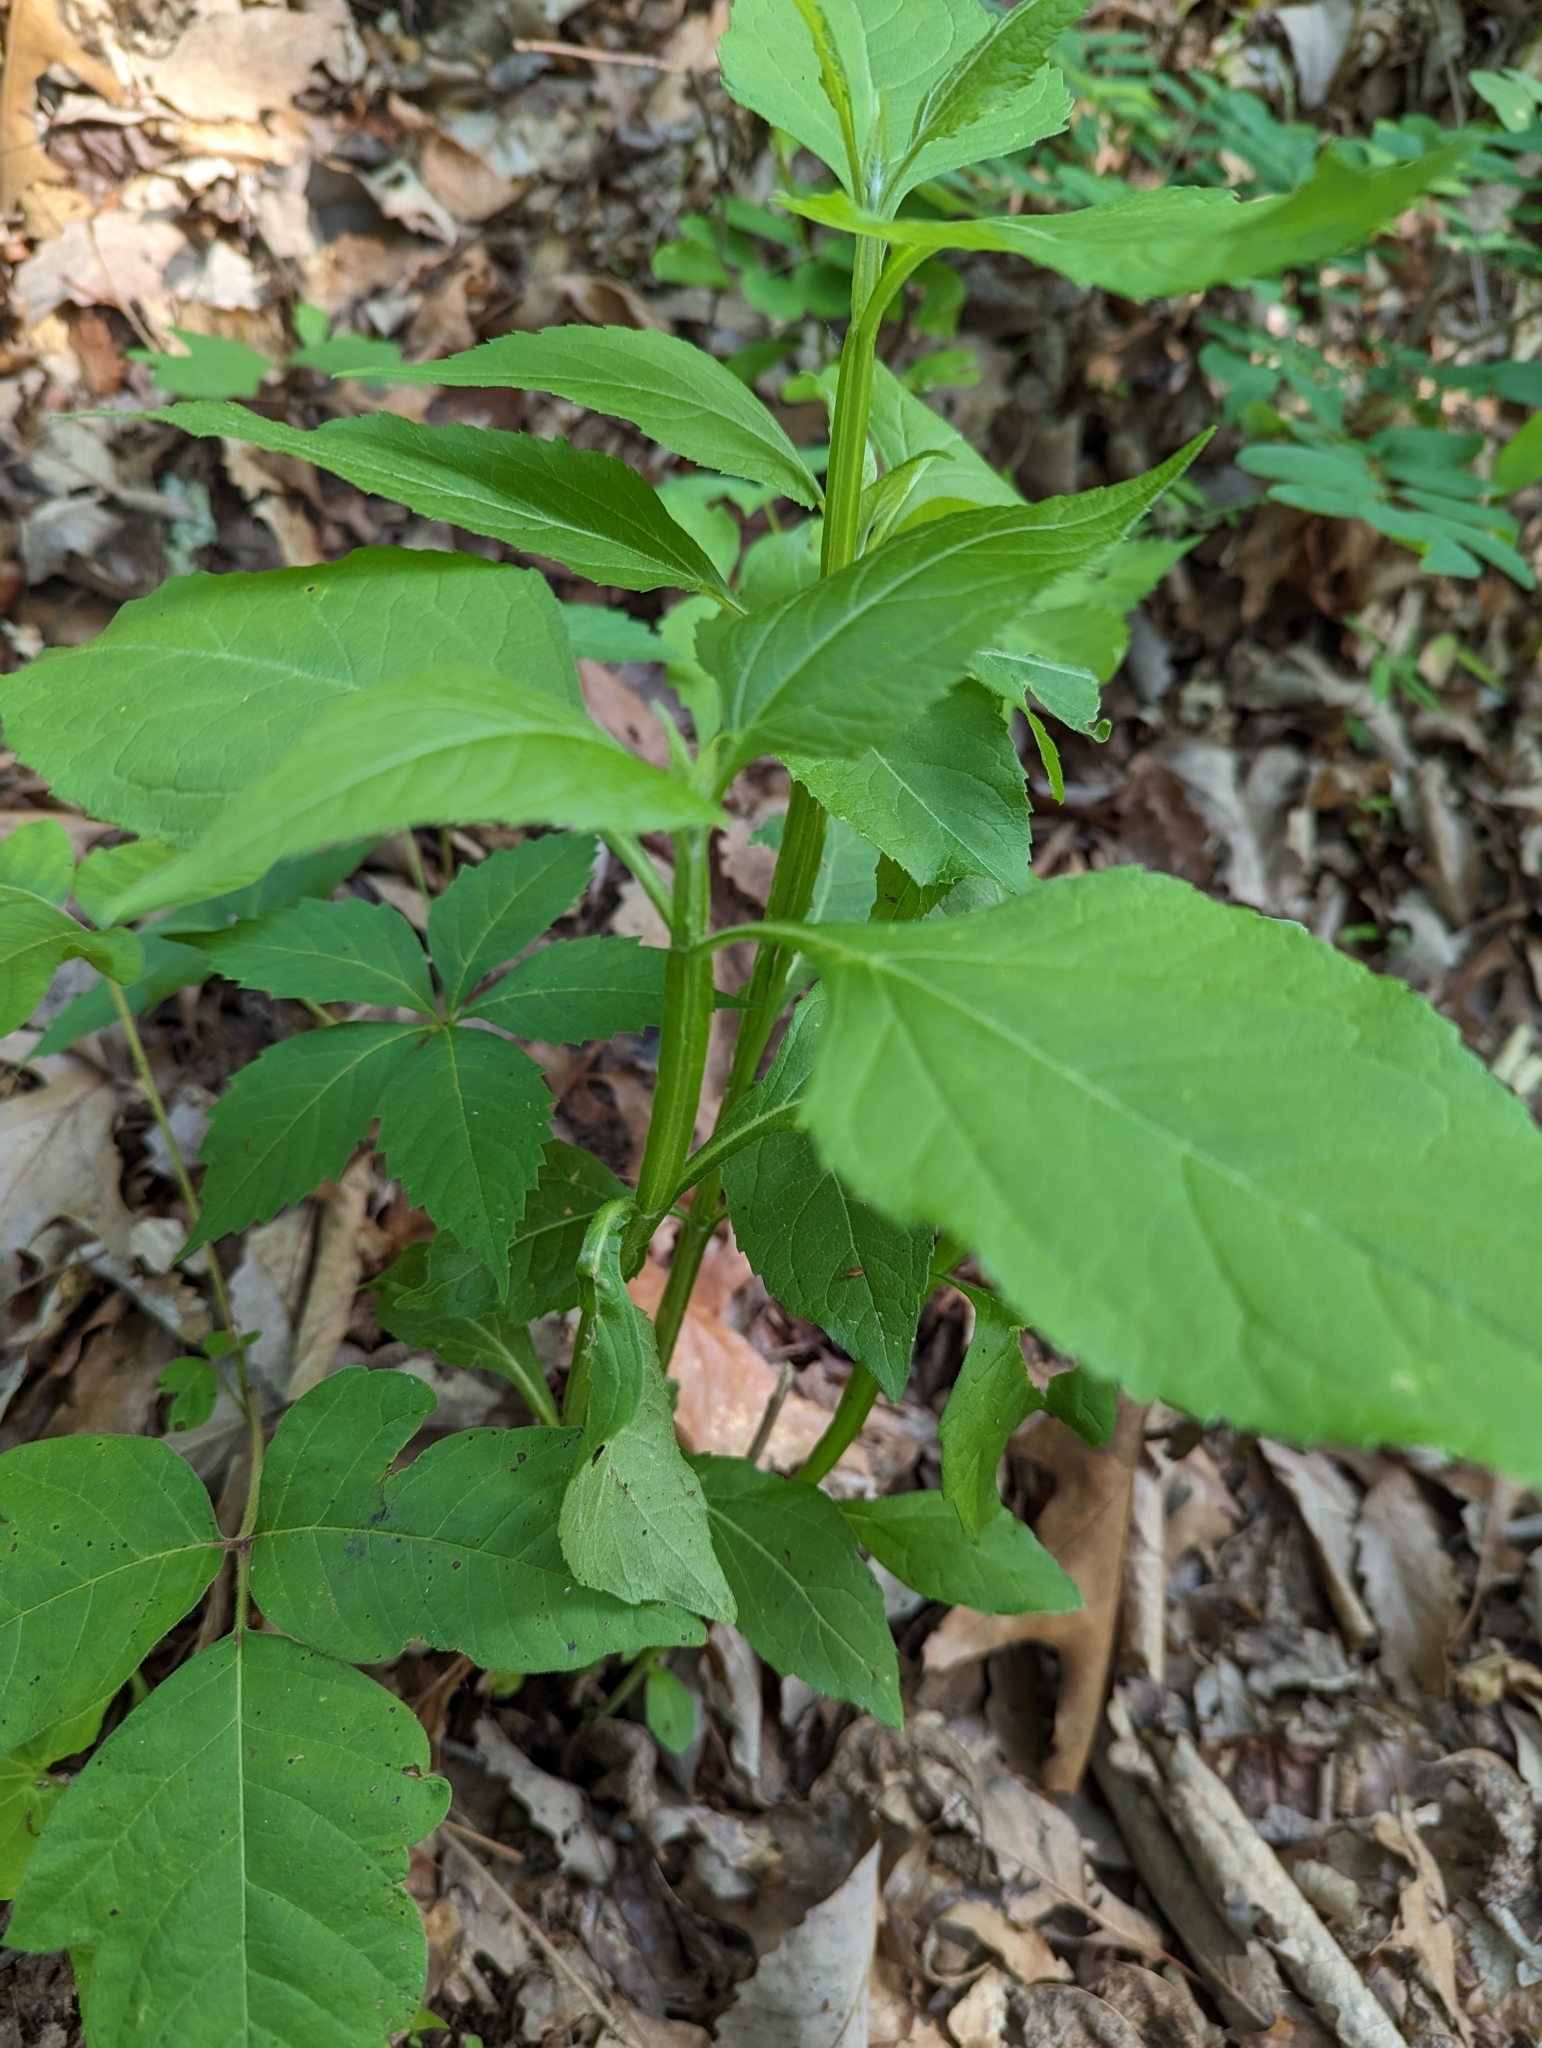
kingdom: Plantae
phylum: Tracheophyta
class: Magnoliopsida
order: Asterales
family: Asteraceae
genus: Verbesina
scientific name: Verbesina occidentalis
